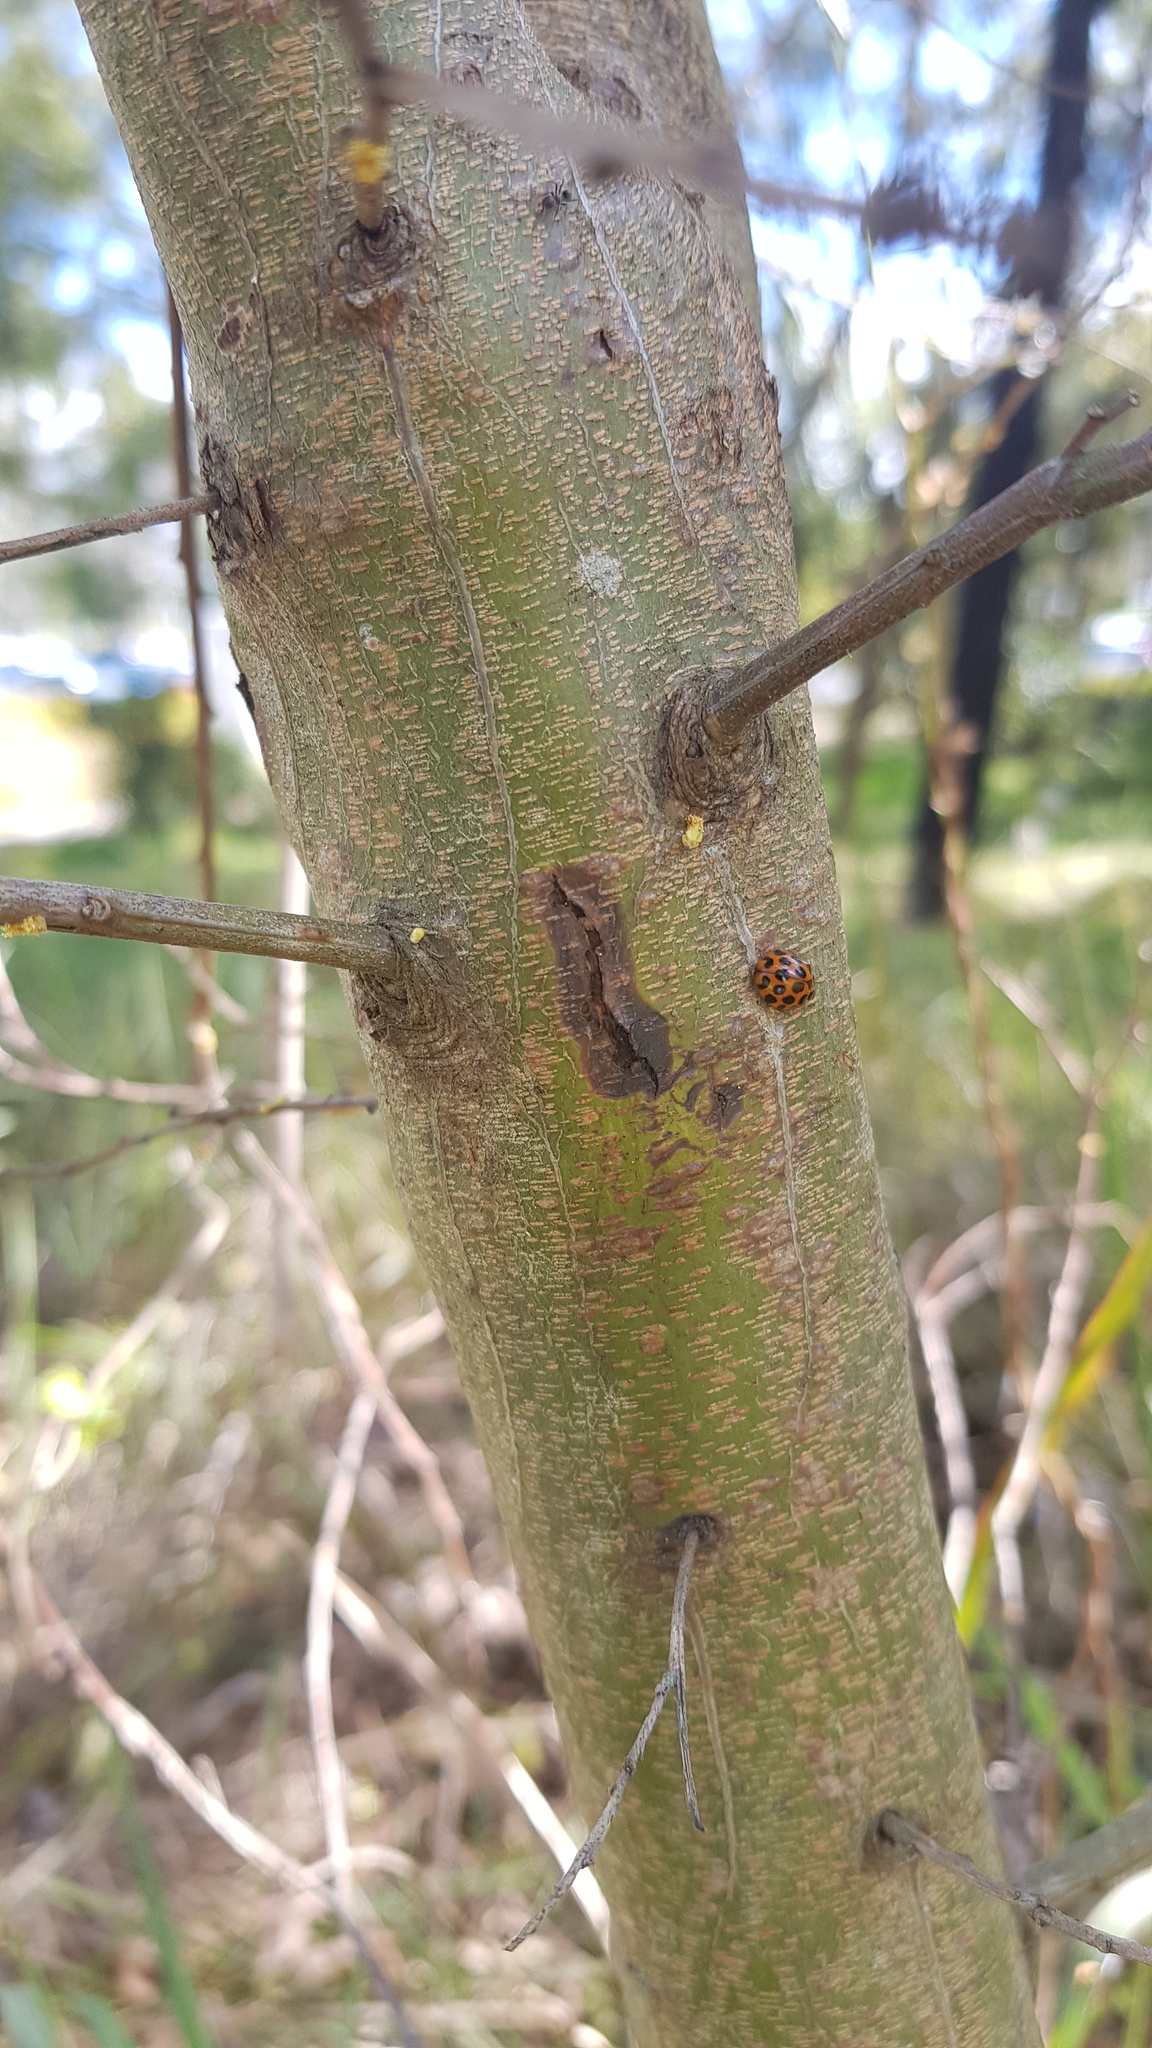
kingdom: Animalia
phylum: Arthropoda
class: Insecta
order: Coleoptera
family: Coccinellidae
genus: Harmonia
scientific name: Harmonia conformis
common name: Common spotted ladybird beetle
